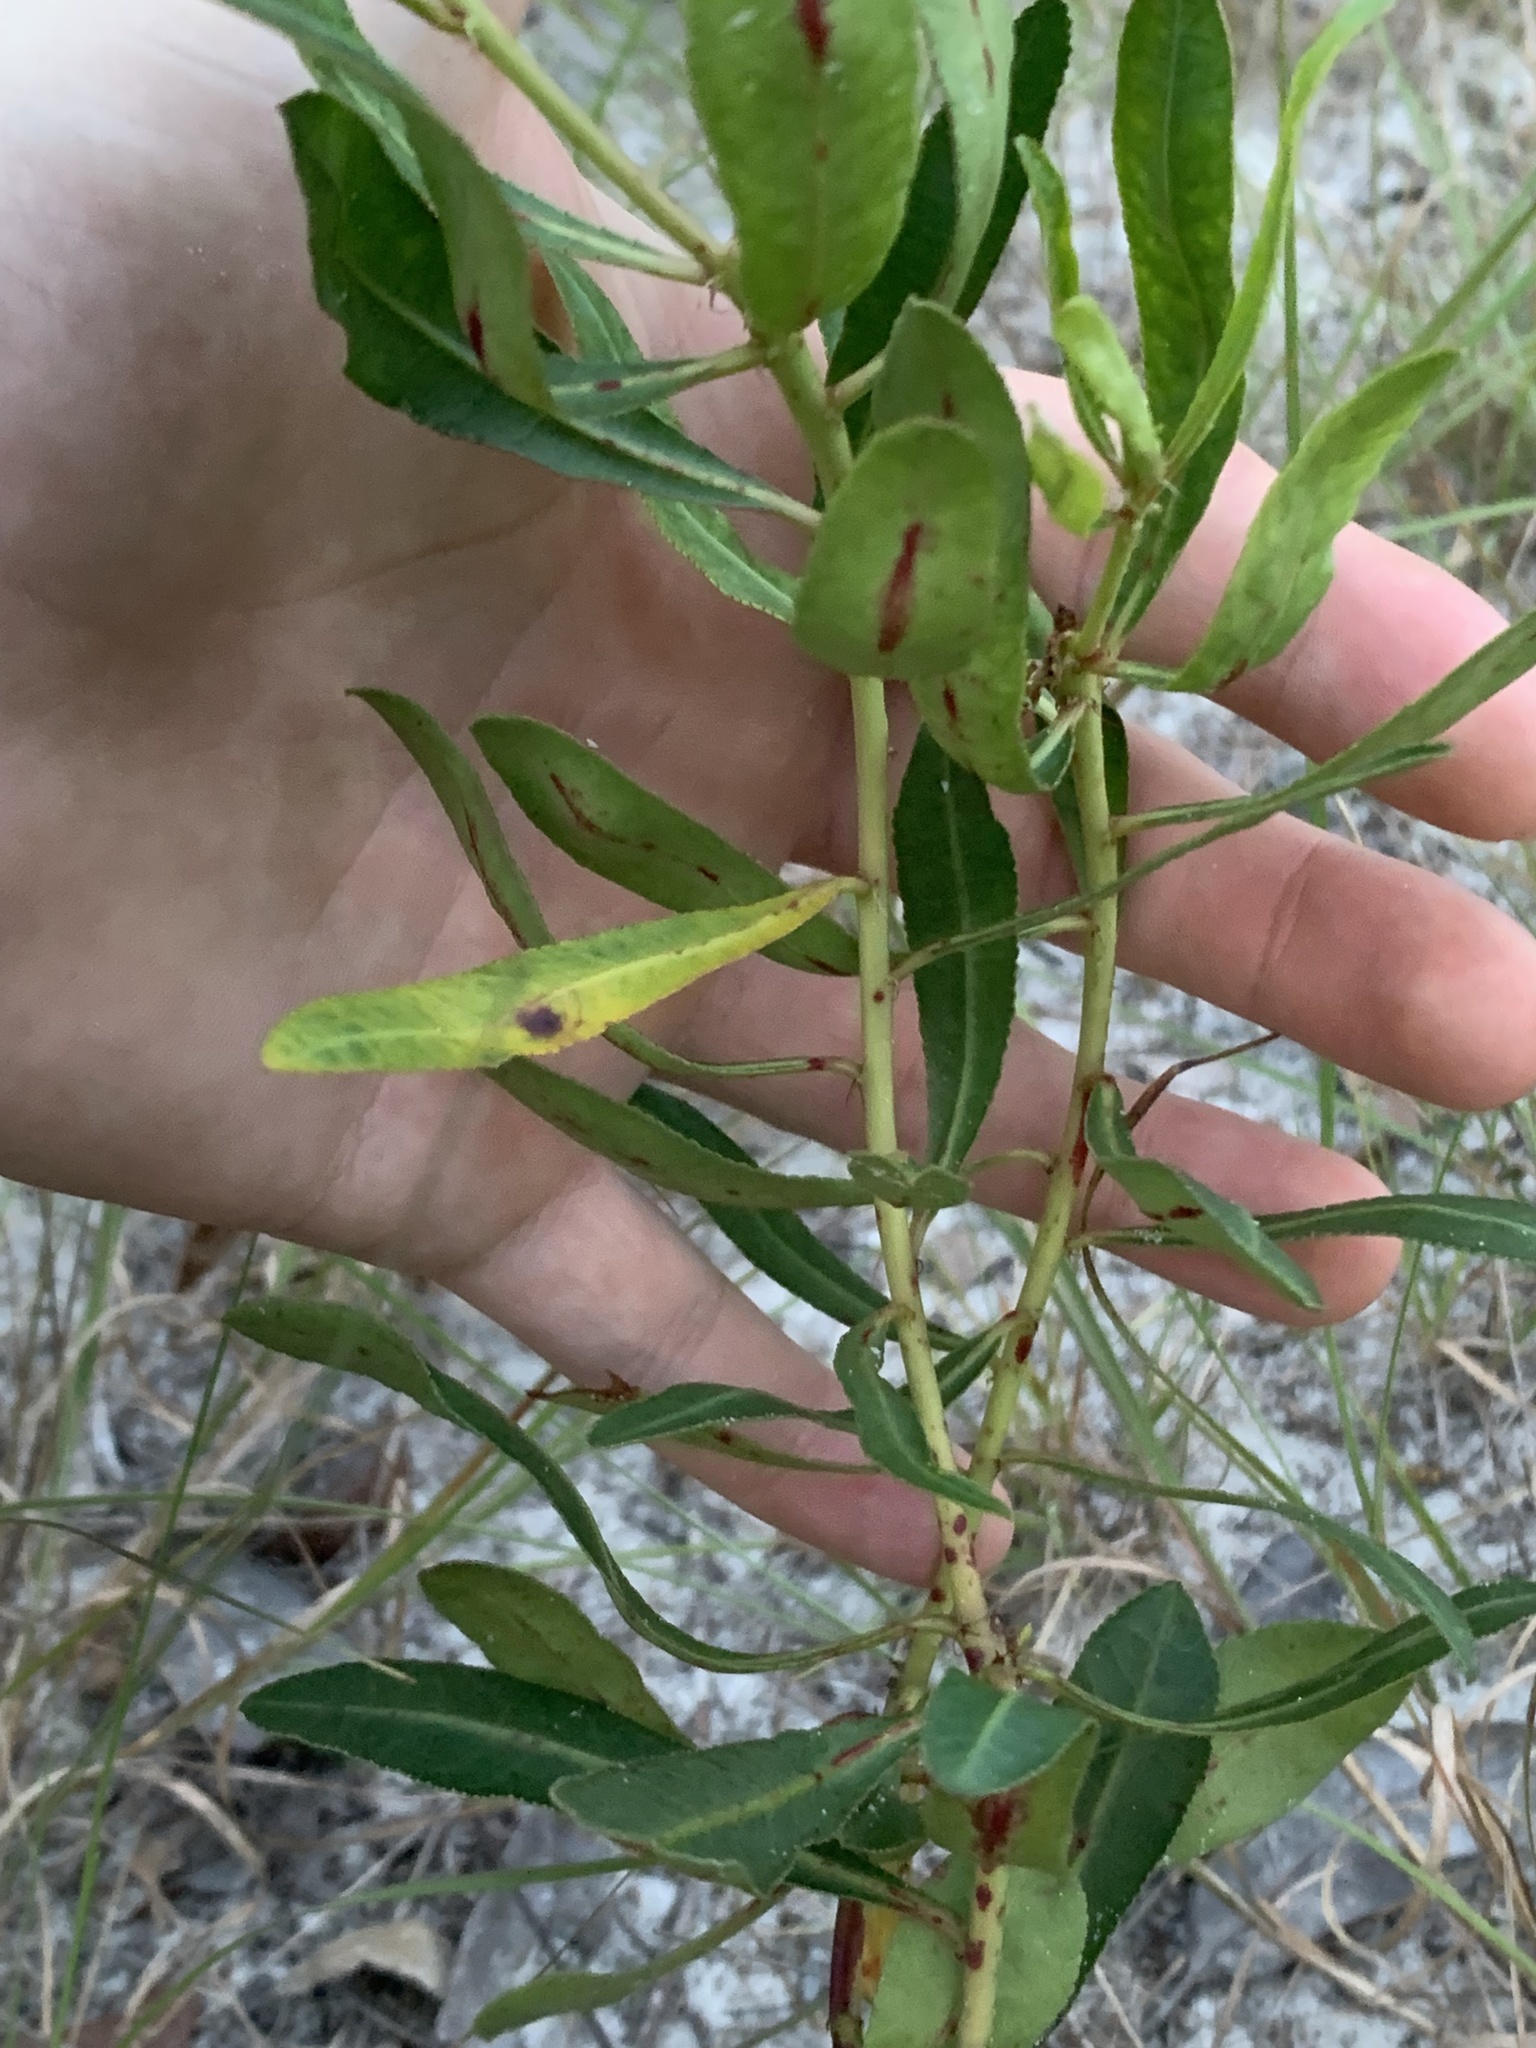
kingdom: Plantae
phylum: Tracheophyta
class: Magnoliopsida
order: Malpighiales
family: Euphorbiaceae
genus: Stillingia
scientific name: Stillingia sylvatica
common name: Queen's-delight
